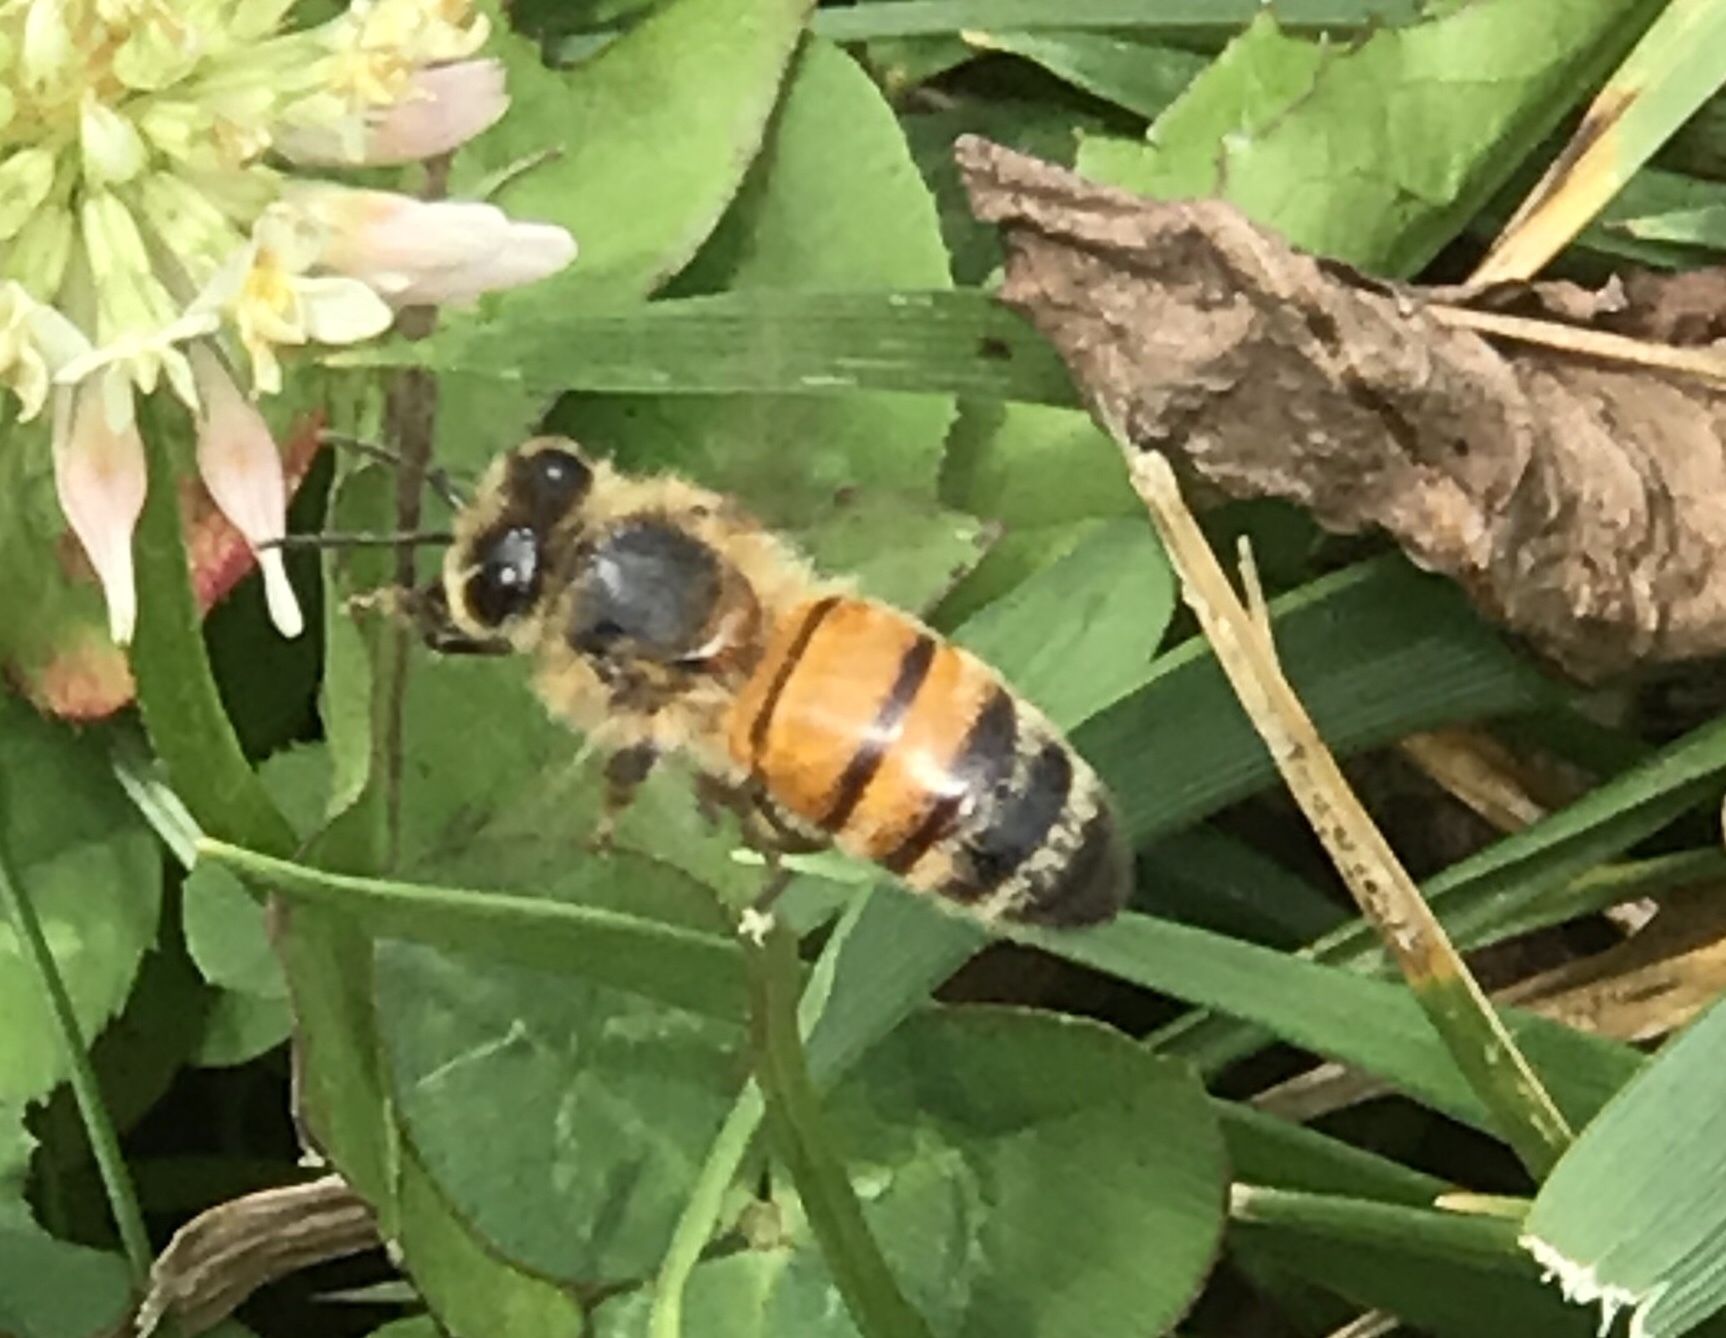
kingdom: Animalia
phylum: Arthropoda
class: Insecta
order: Hymenoptera
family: Apidae
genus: Apis
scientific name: Apis mellifera
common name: Honey bee
